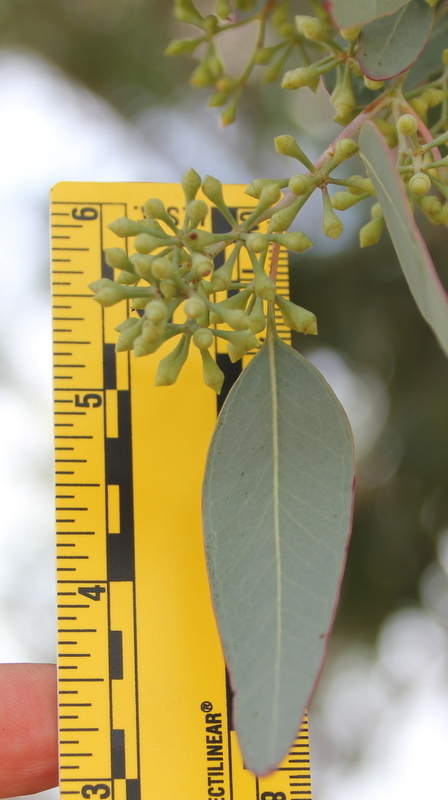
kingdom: Plantae
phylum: Tracheophyta
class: Magnoliopsida
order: Myrtales
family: Myrtaceae
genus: Eucalyptus
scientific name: Eucalyptus polyanthemos
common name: Red-box
